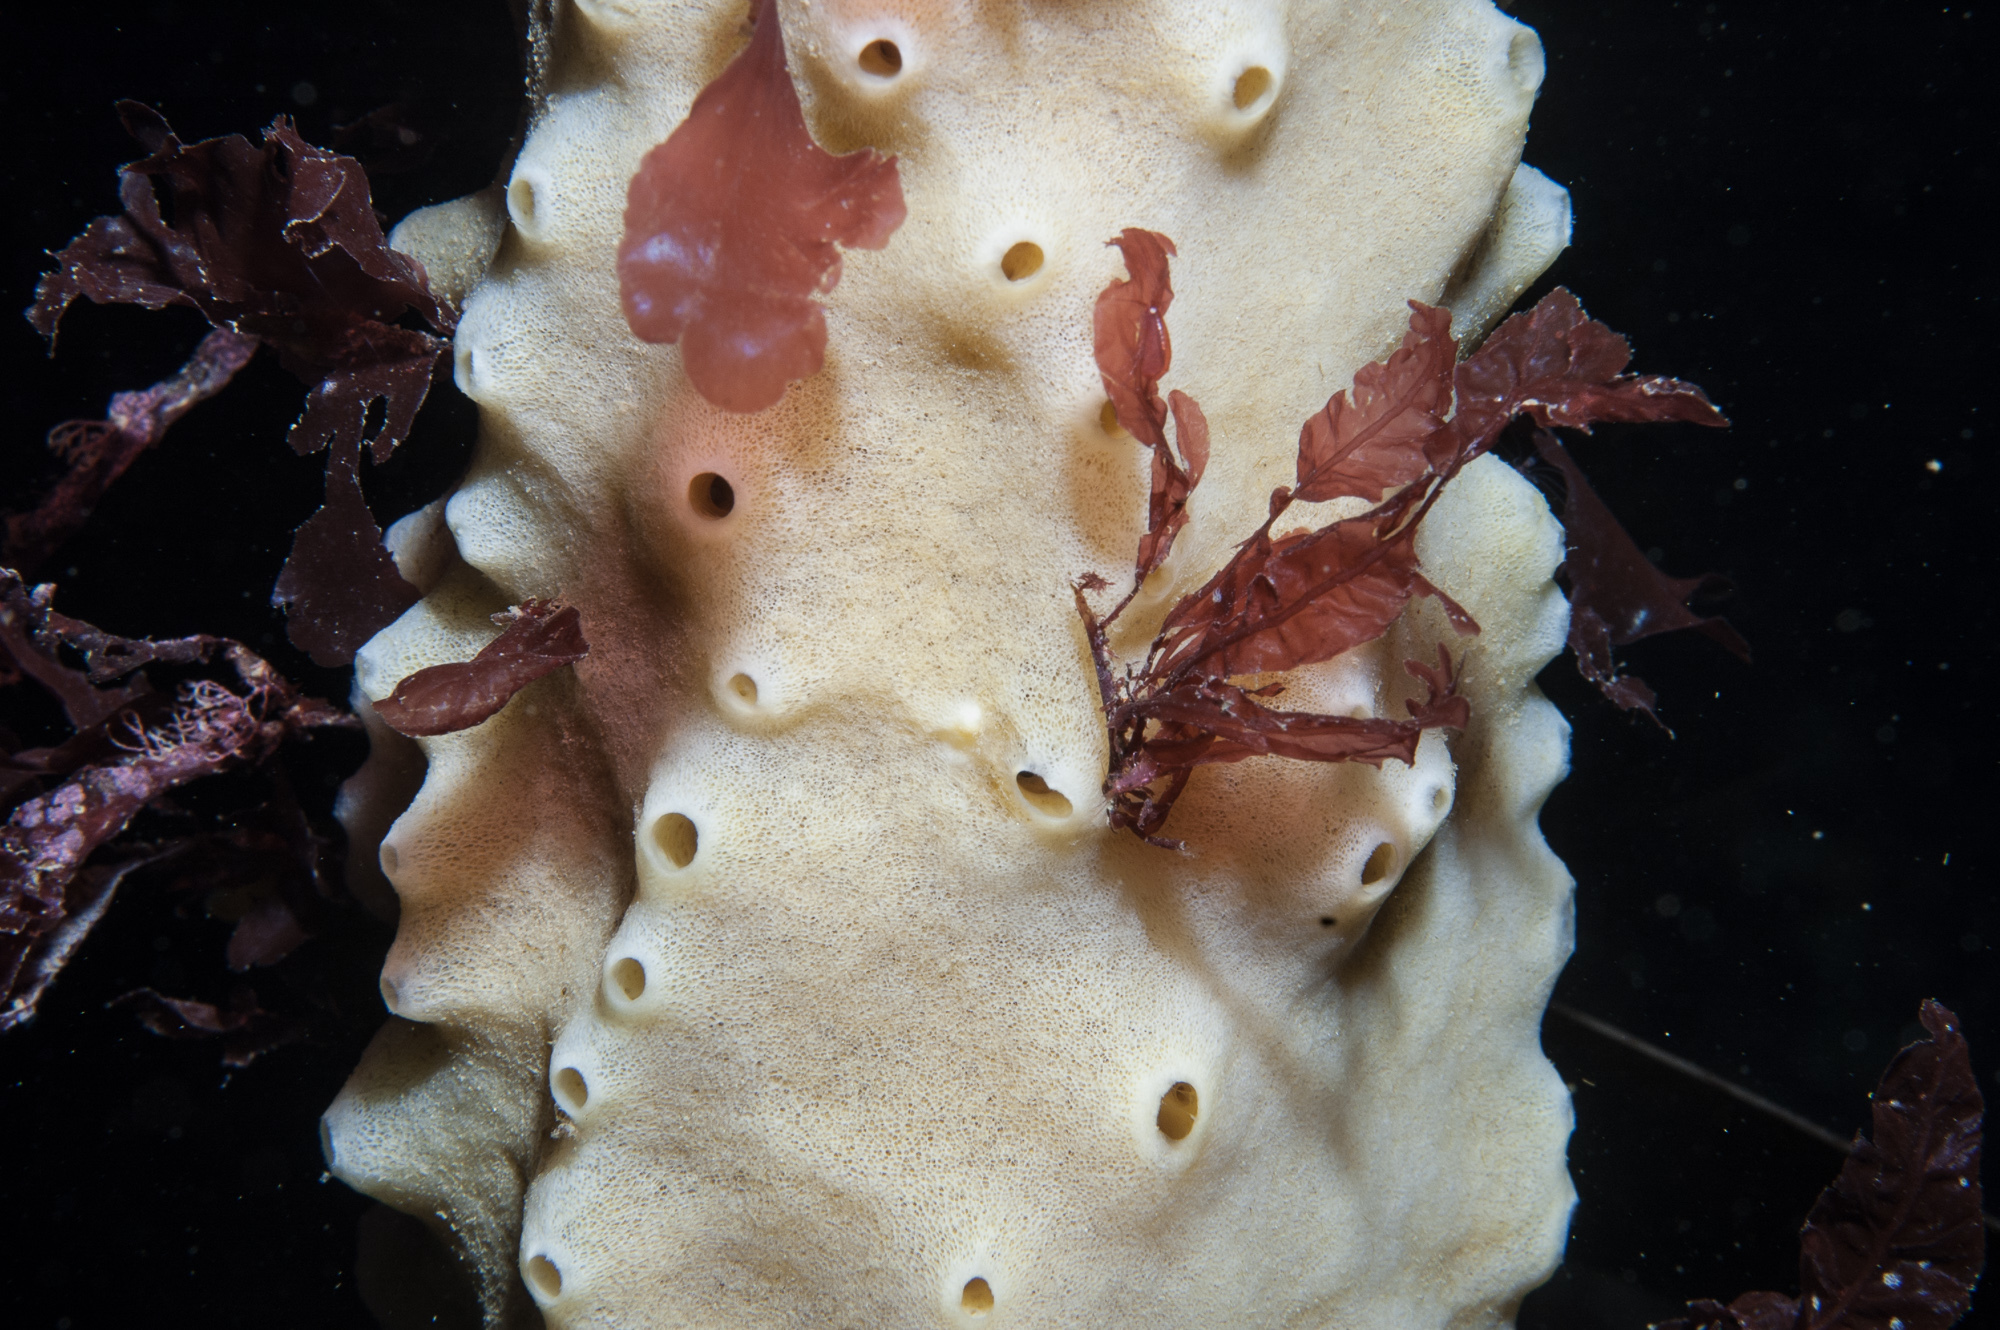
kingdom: Animalia
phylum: Porifera
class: Demospongiae
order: Suberitida
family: Halichondriidae
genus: Halichondria
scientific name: Halichondria panicea
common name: Breadcrumb sponge
